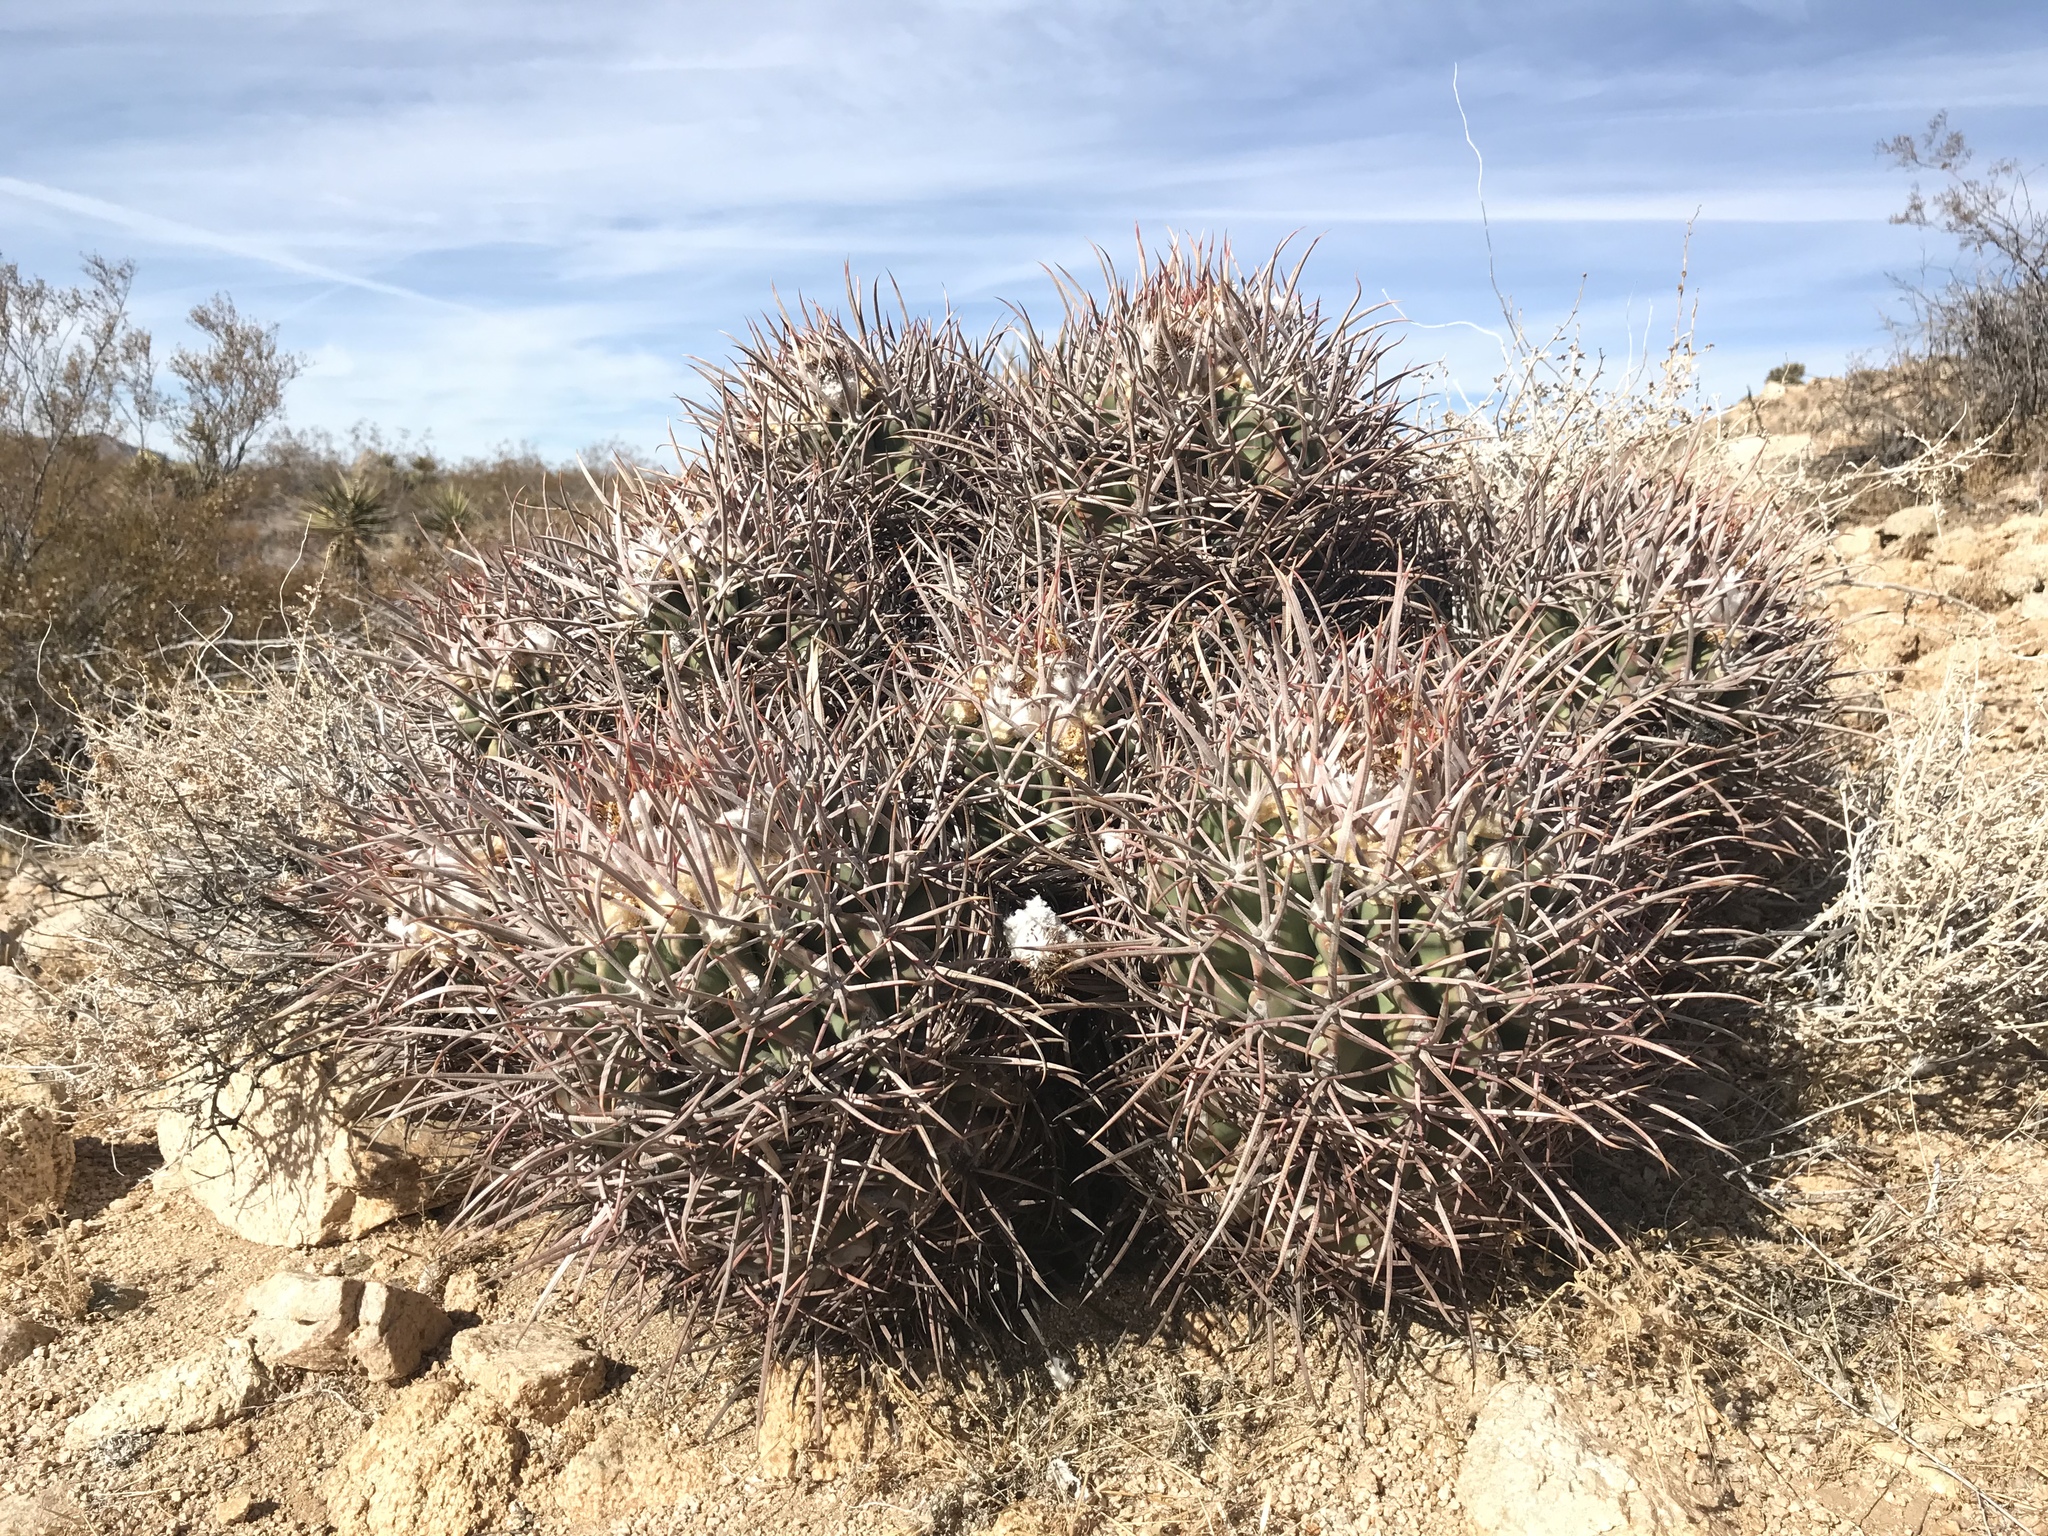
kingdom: Plantae
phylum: Tracheophyta
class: Magnoliopsida
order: Caryophyllales
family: Cactaceae
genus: Echinocactus
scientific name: Echinocactus polycephalus
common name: Cottontop cactus
